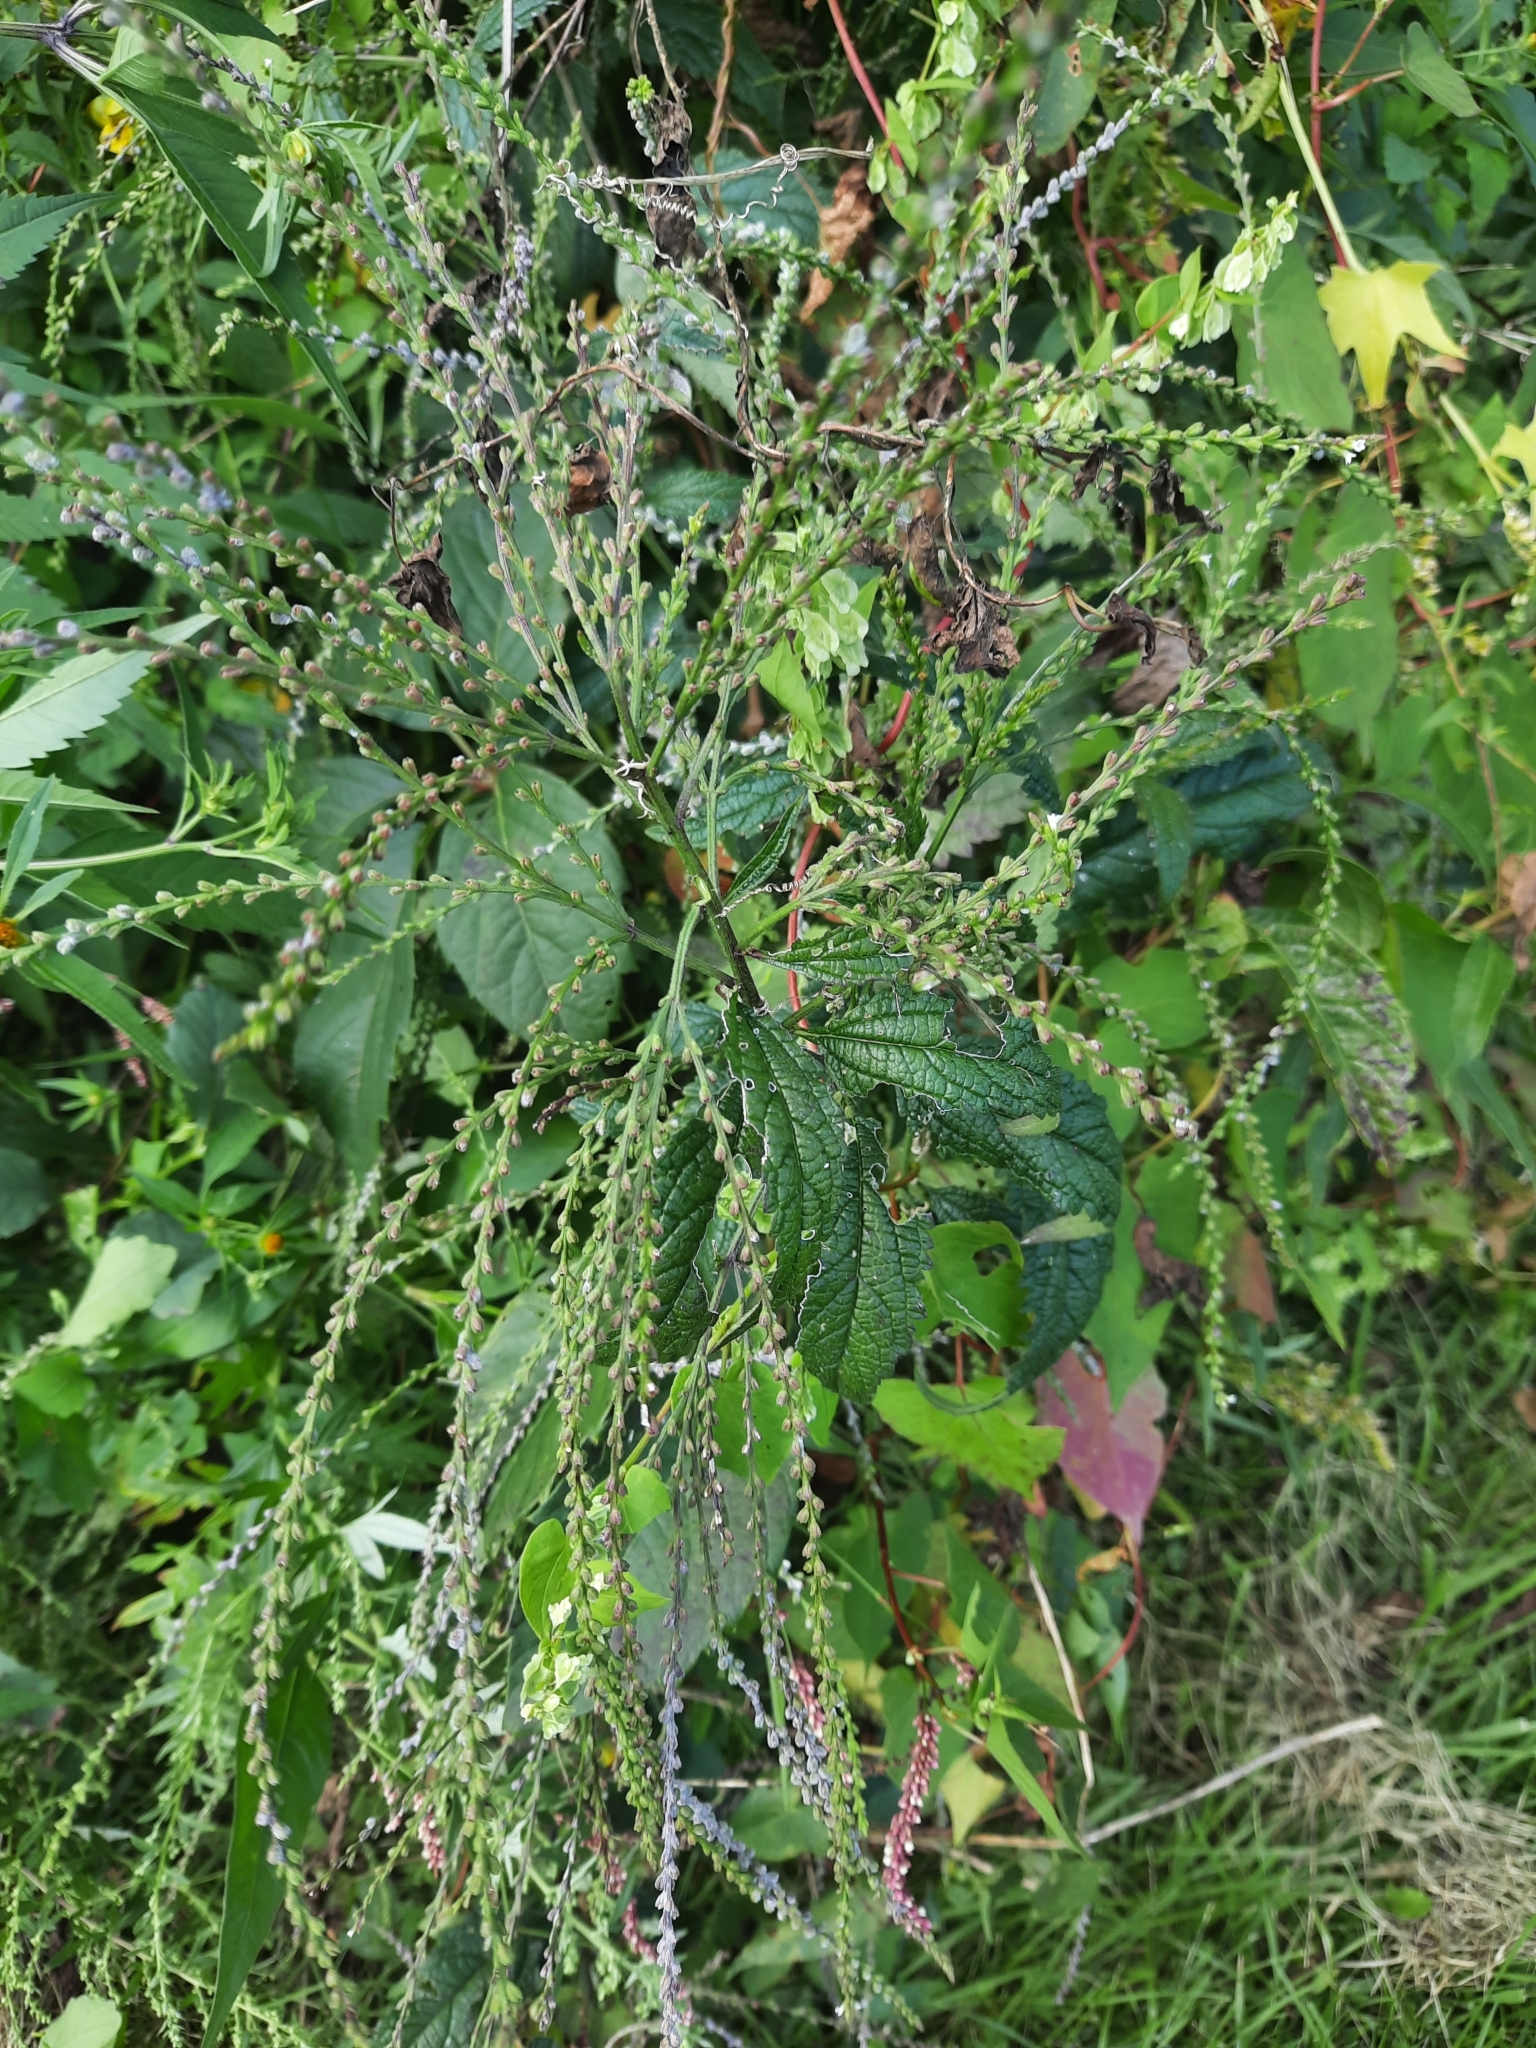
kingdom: Plantae
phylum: Tracheophyta
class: Magnoliopsida
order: Lamiales
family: Verbenaceae
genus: Verbena
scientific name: Verbena urticifolia
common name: Nettle-leaved vervain
